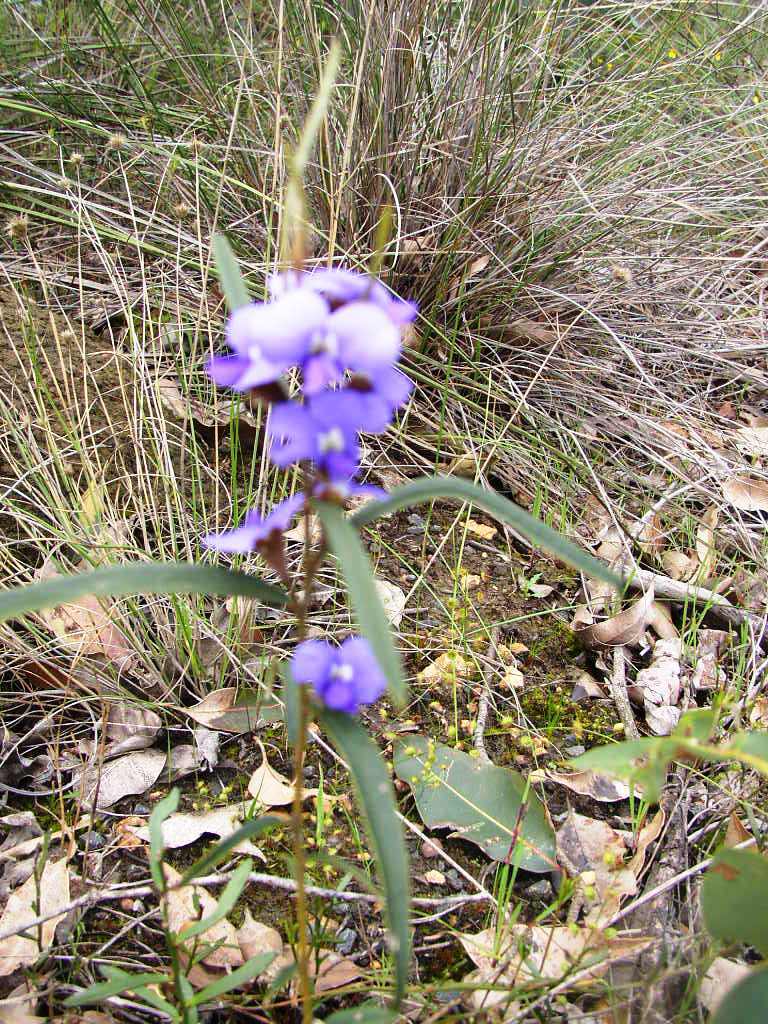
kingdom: Plantae
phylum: Tracheophyta
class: Magnoliopsida
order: Fabales
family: Fabaceae
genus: Hovea
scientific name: Hovea trisperma
